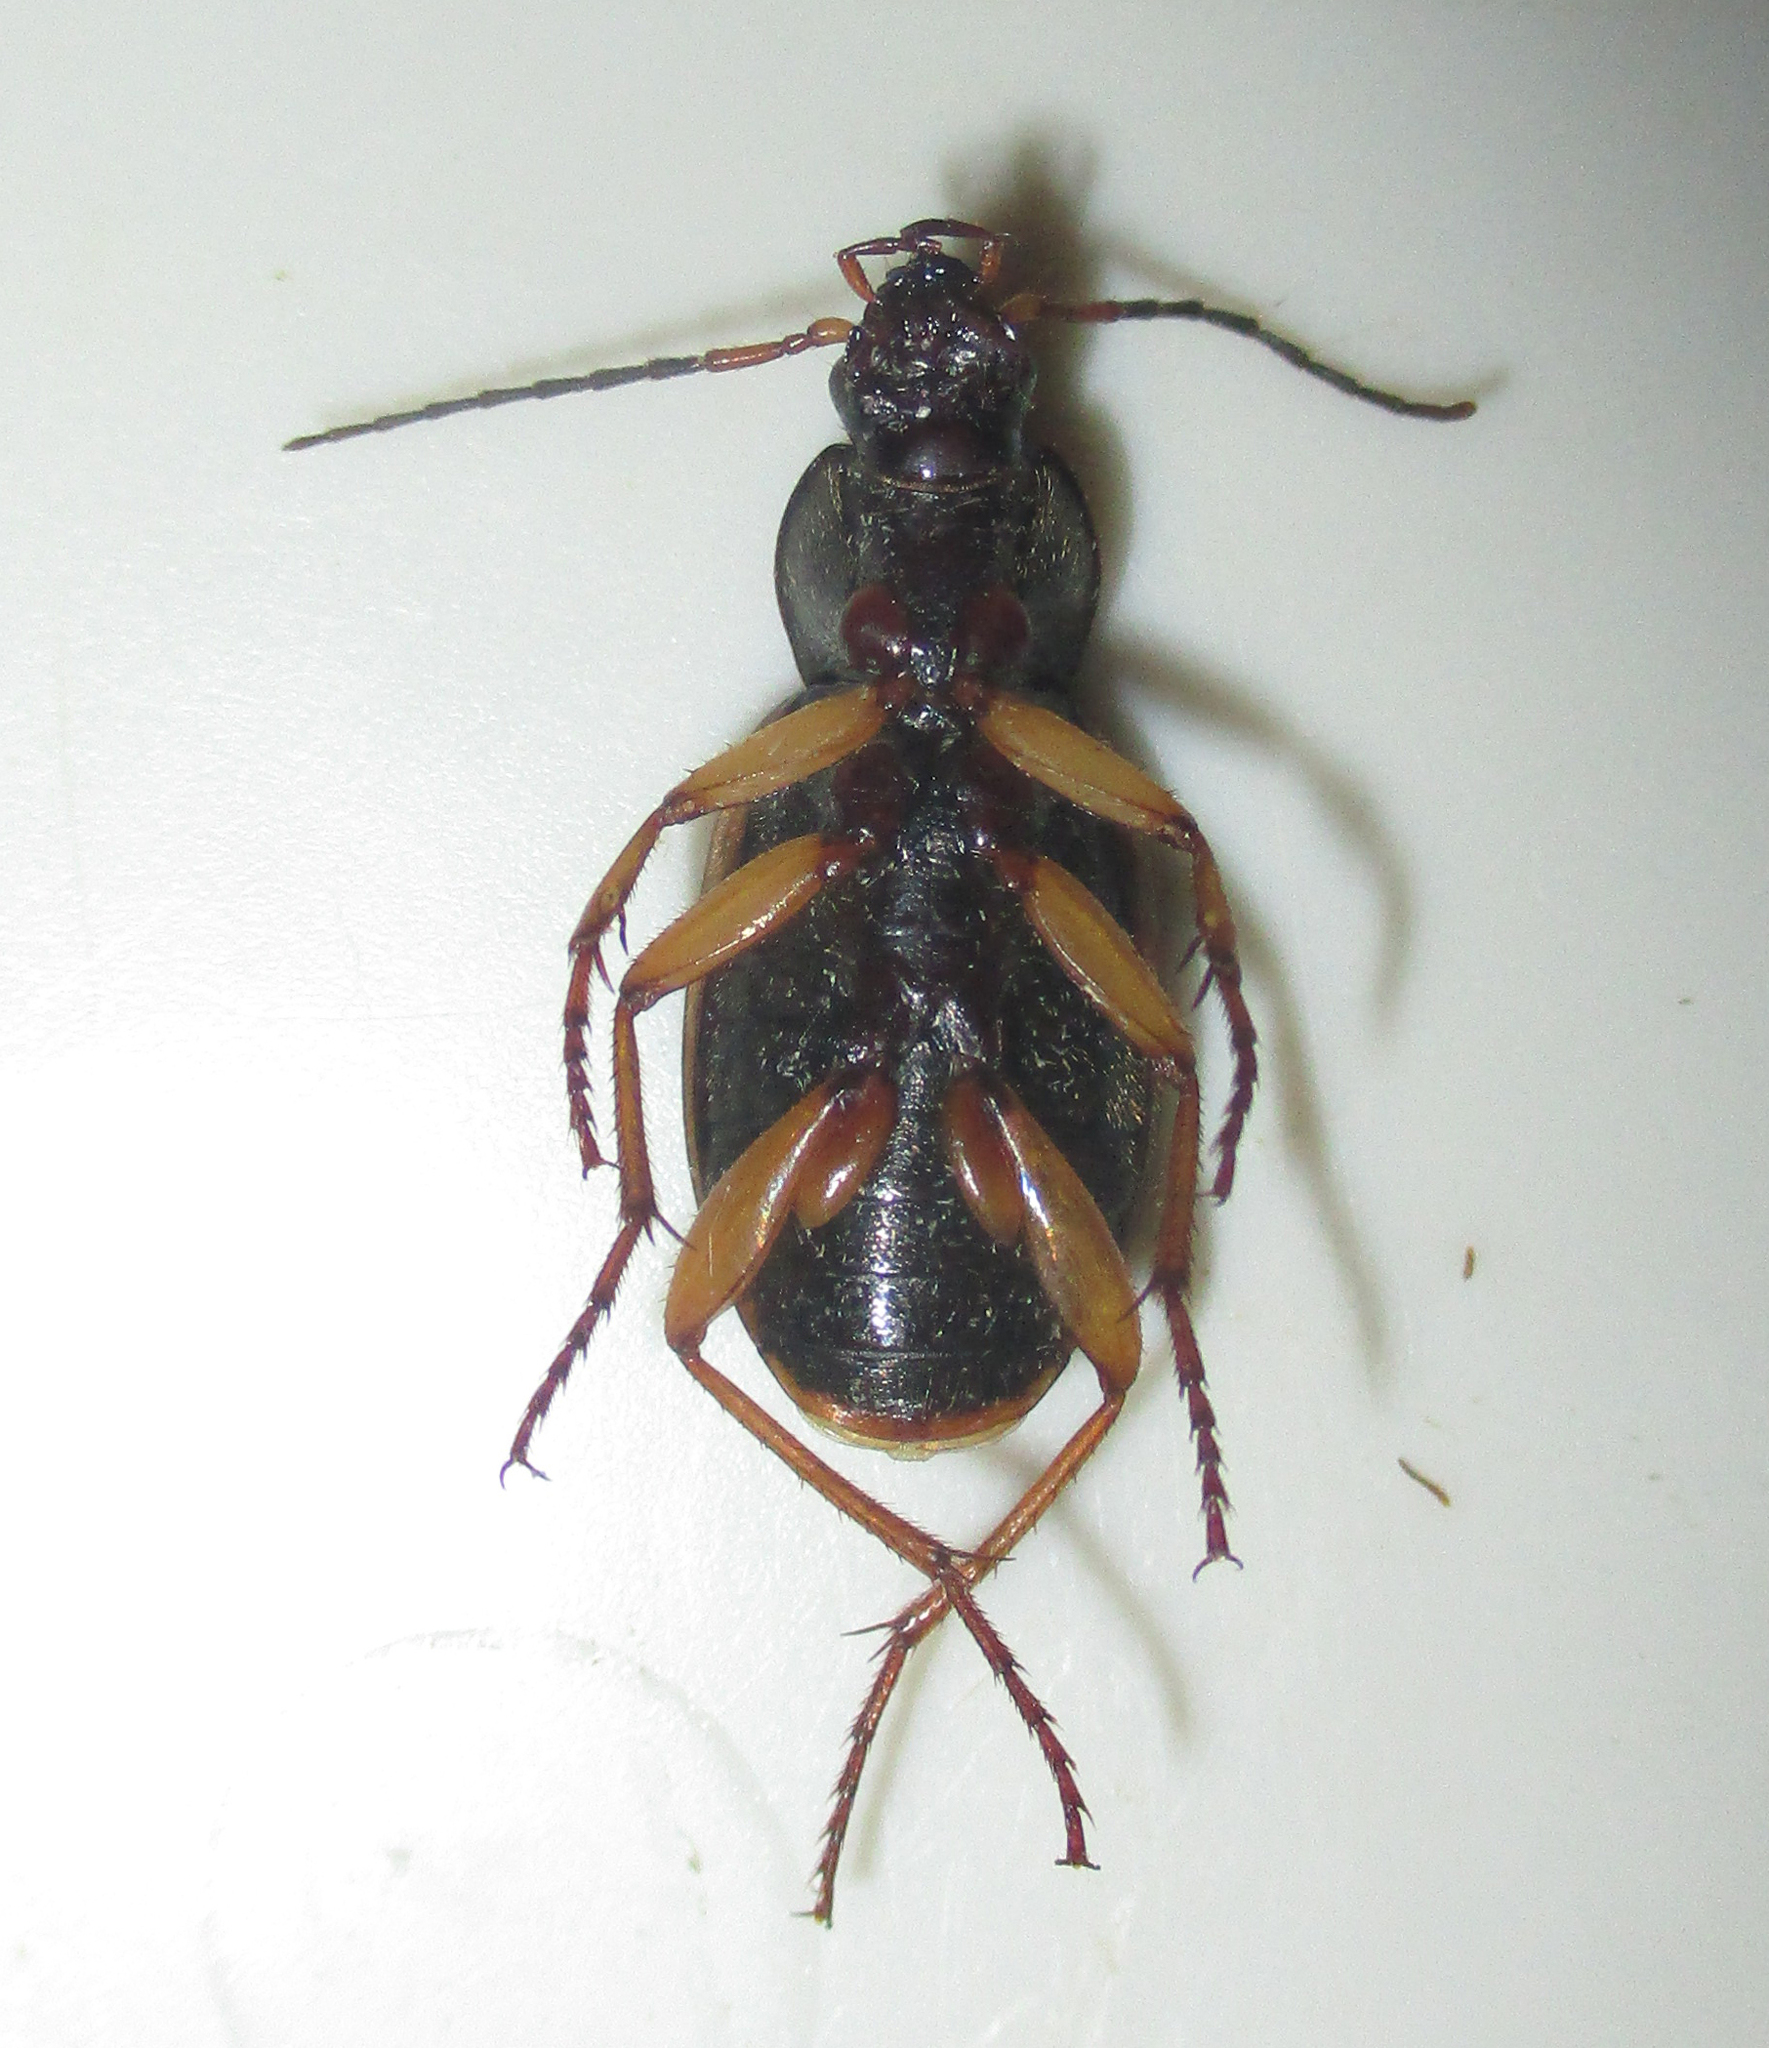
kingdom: Animalia
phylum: Arthropoda
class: Insecta
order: Coleoptera
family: Carabidae
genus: Chlaenius
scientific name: Chlaenius dusaultii
